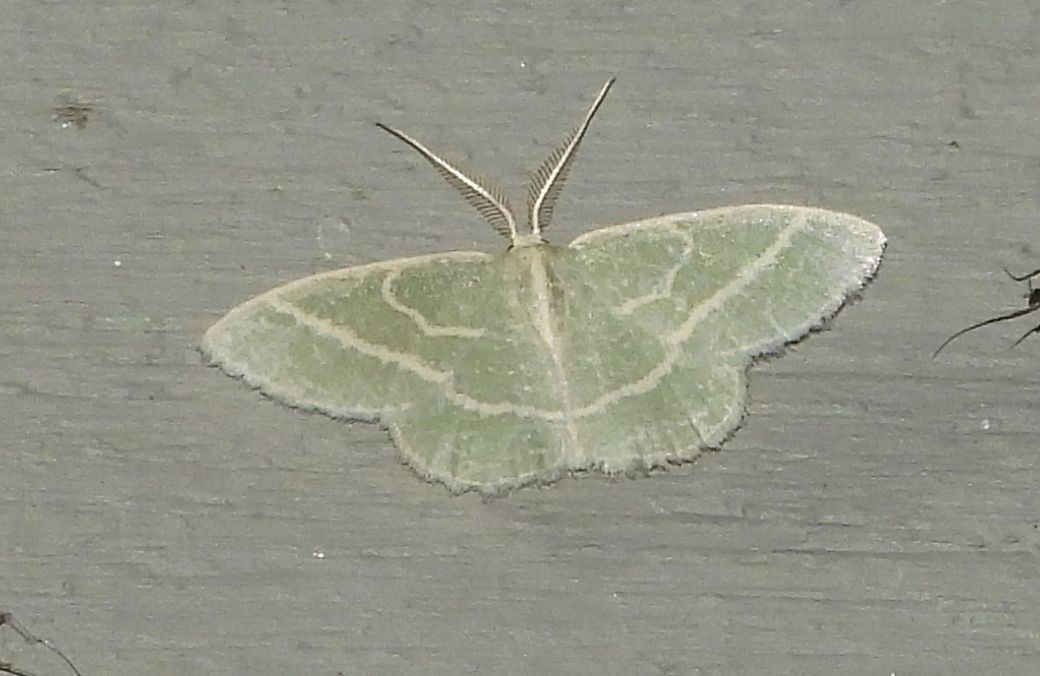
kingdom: Animalia
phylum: Arthropoda
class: Insecta
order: Lepidoptera
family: Geometridae
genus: Chlorochlamys
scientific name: Chlorochlamys chloroleucaria
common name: Blackberry looper
